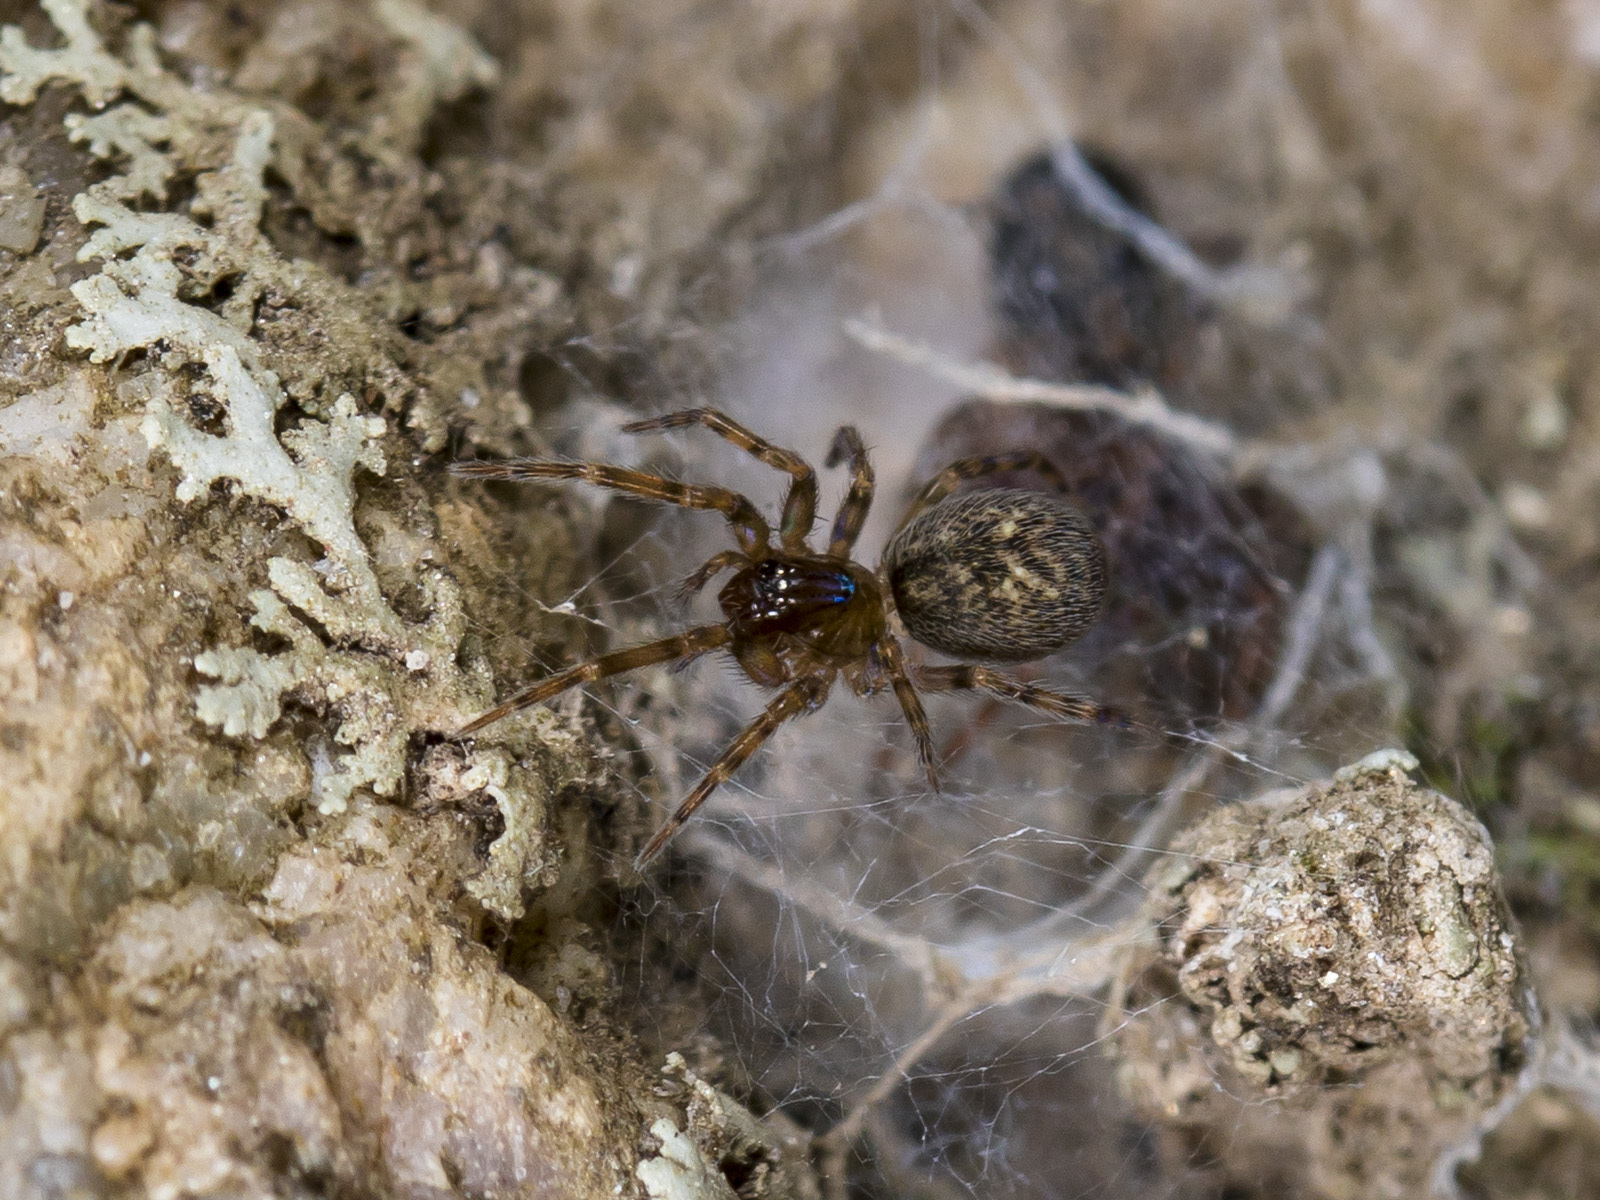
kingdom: Animalia
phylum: Arthropoda
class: Arachnida
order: Araneae
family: Dictynidae
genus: Lathys
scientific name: Lathys truncata
